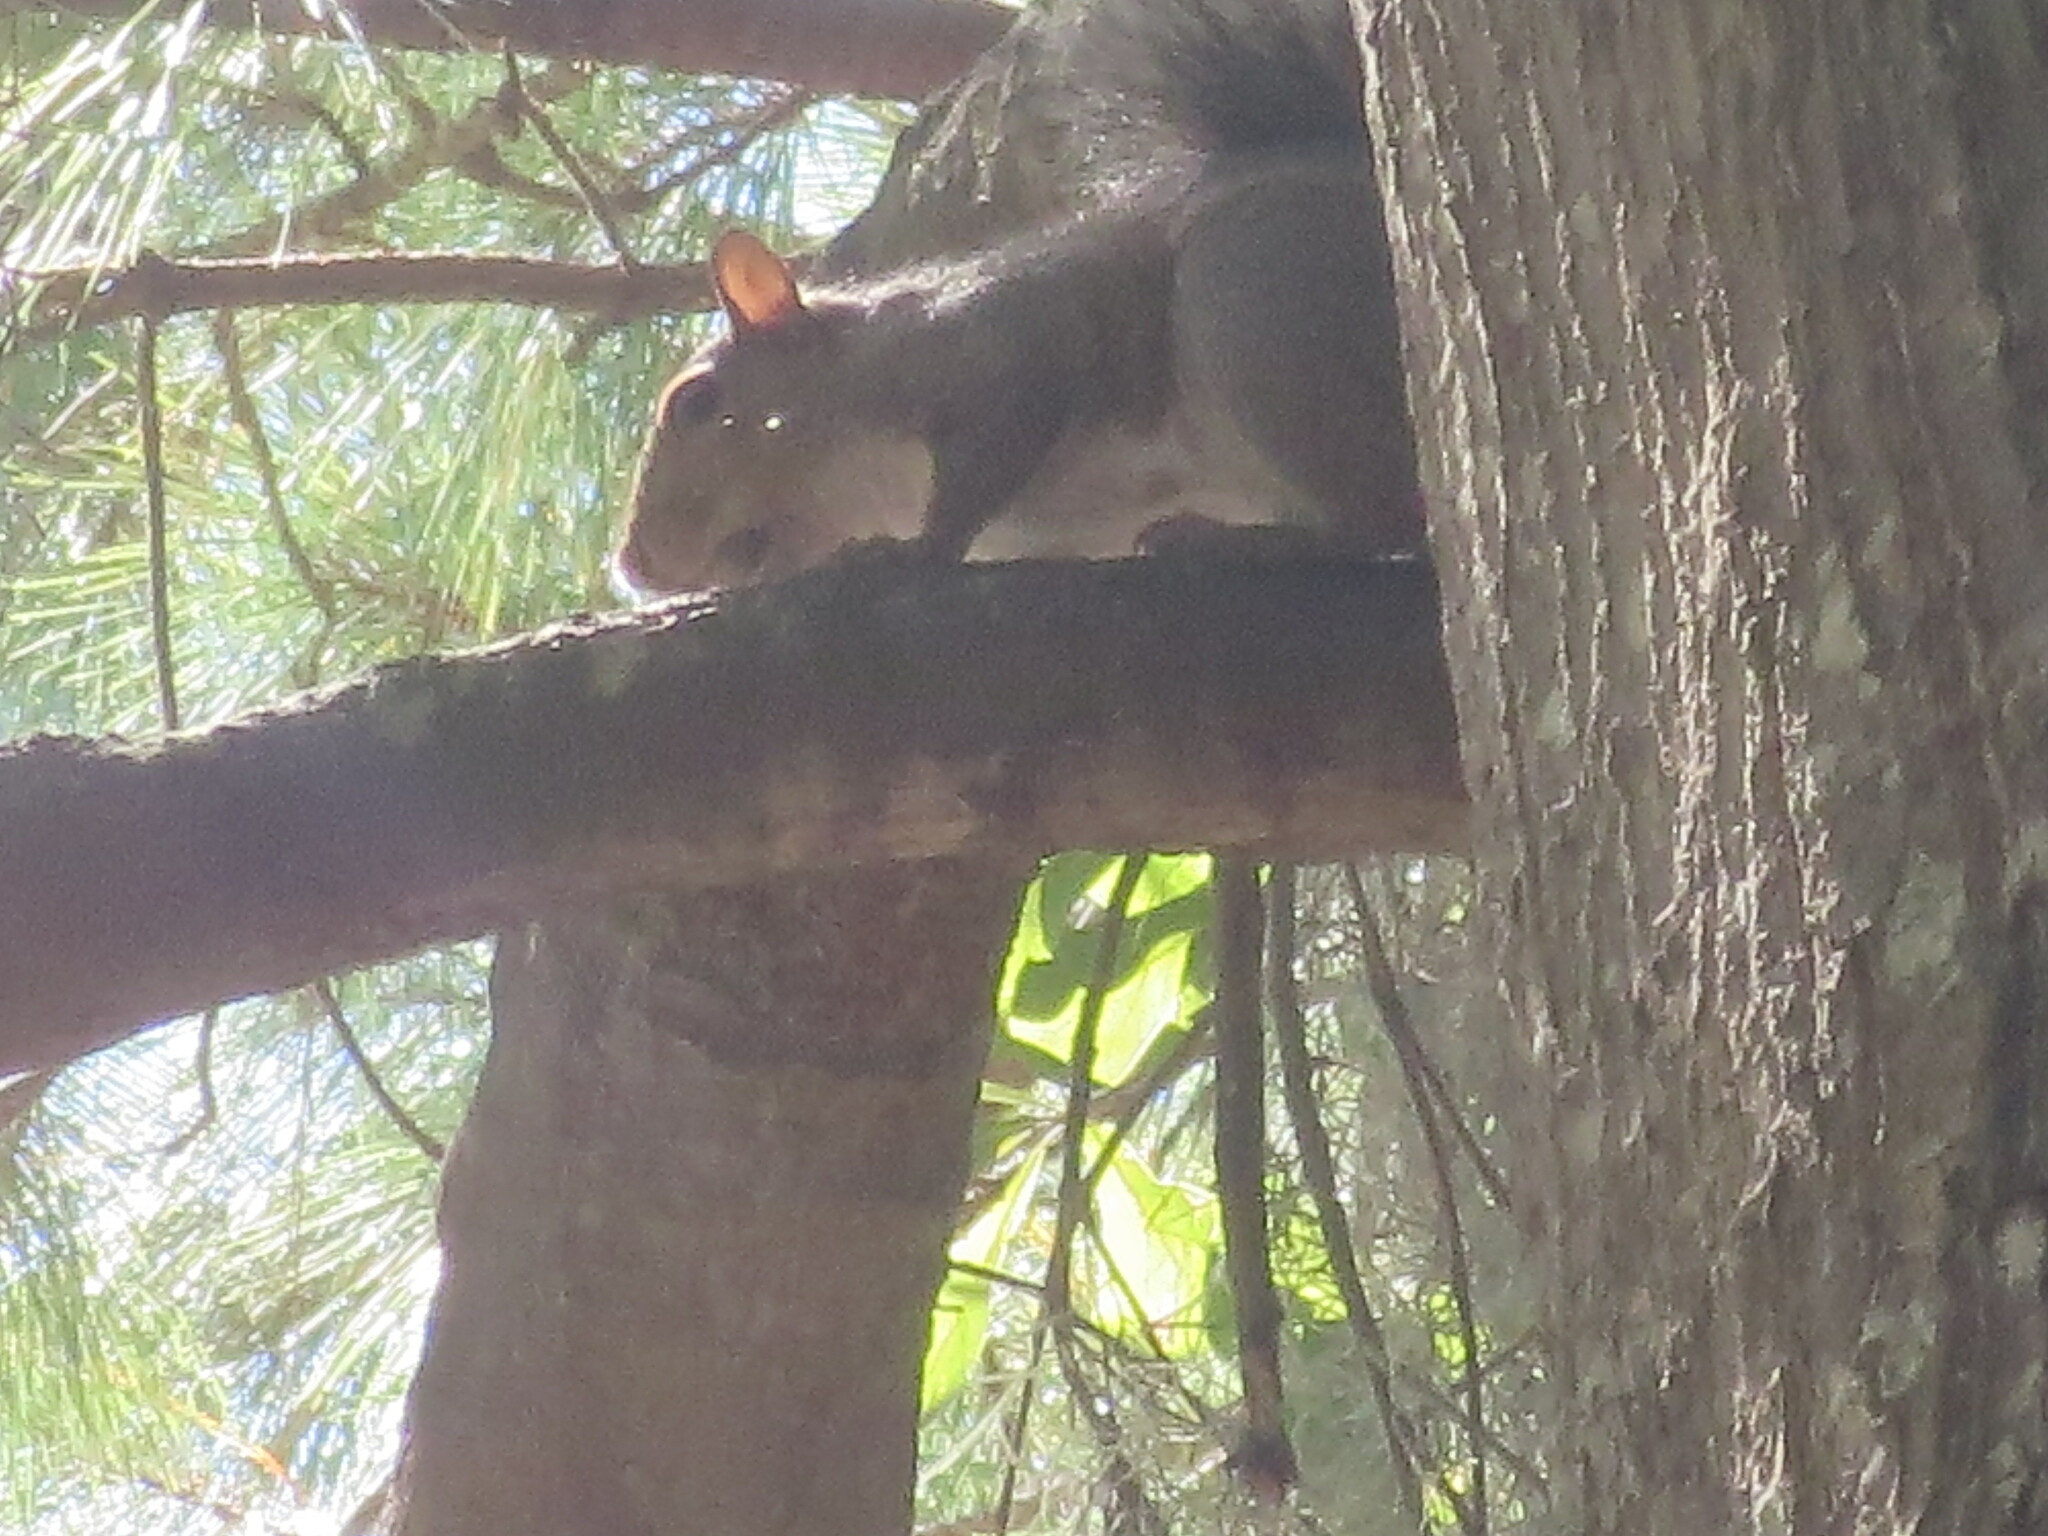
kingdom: Animalia
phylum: Chordata
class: Mammalia
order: Rodentia
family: Sciuridae
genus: Sciurus
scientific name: Sciurus carolinensis
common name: Eastern gray squirrel
